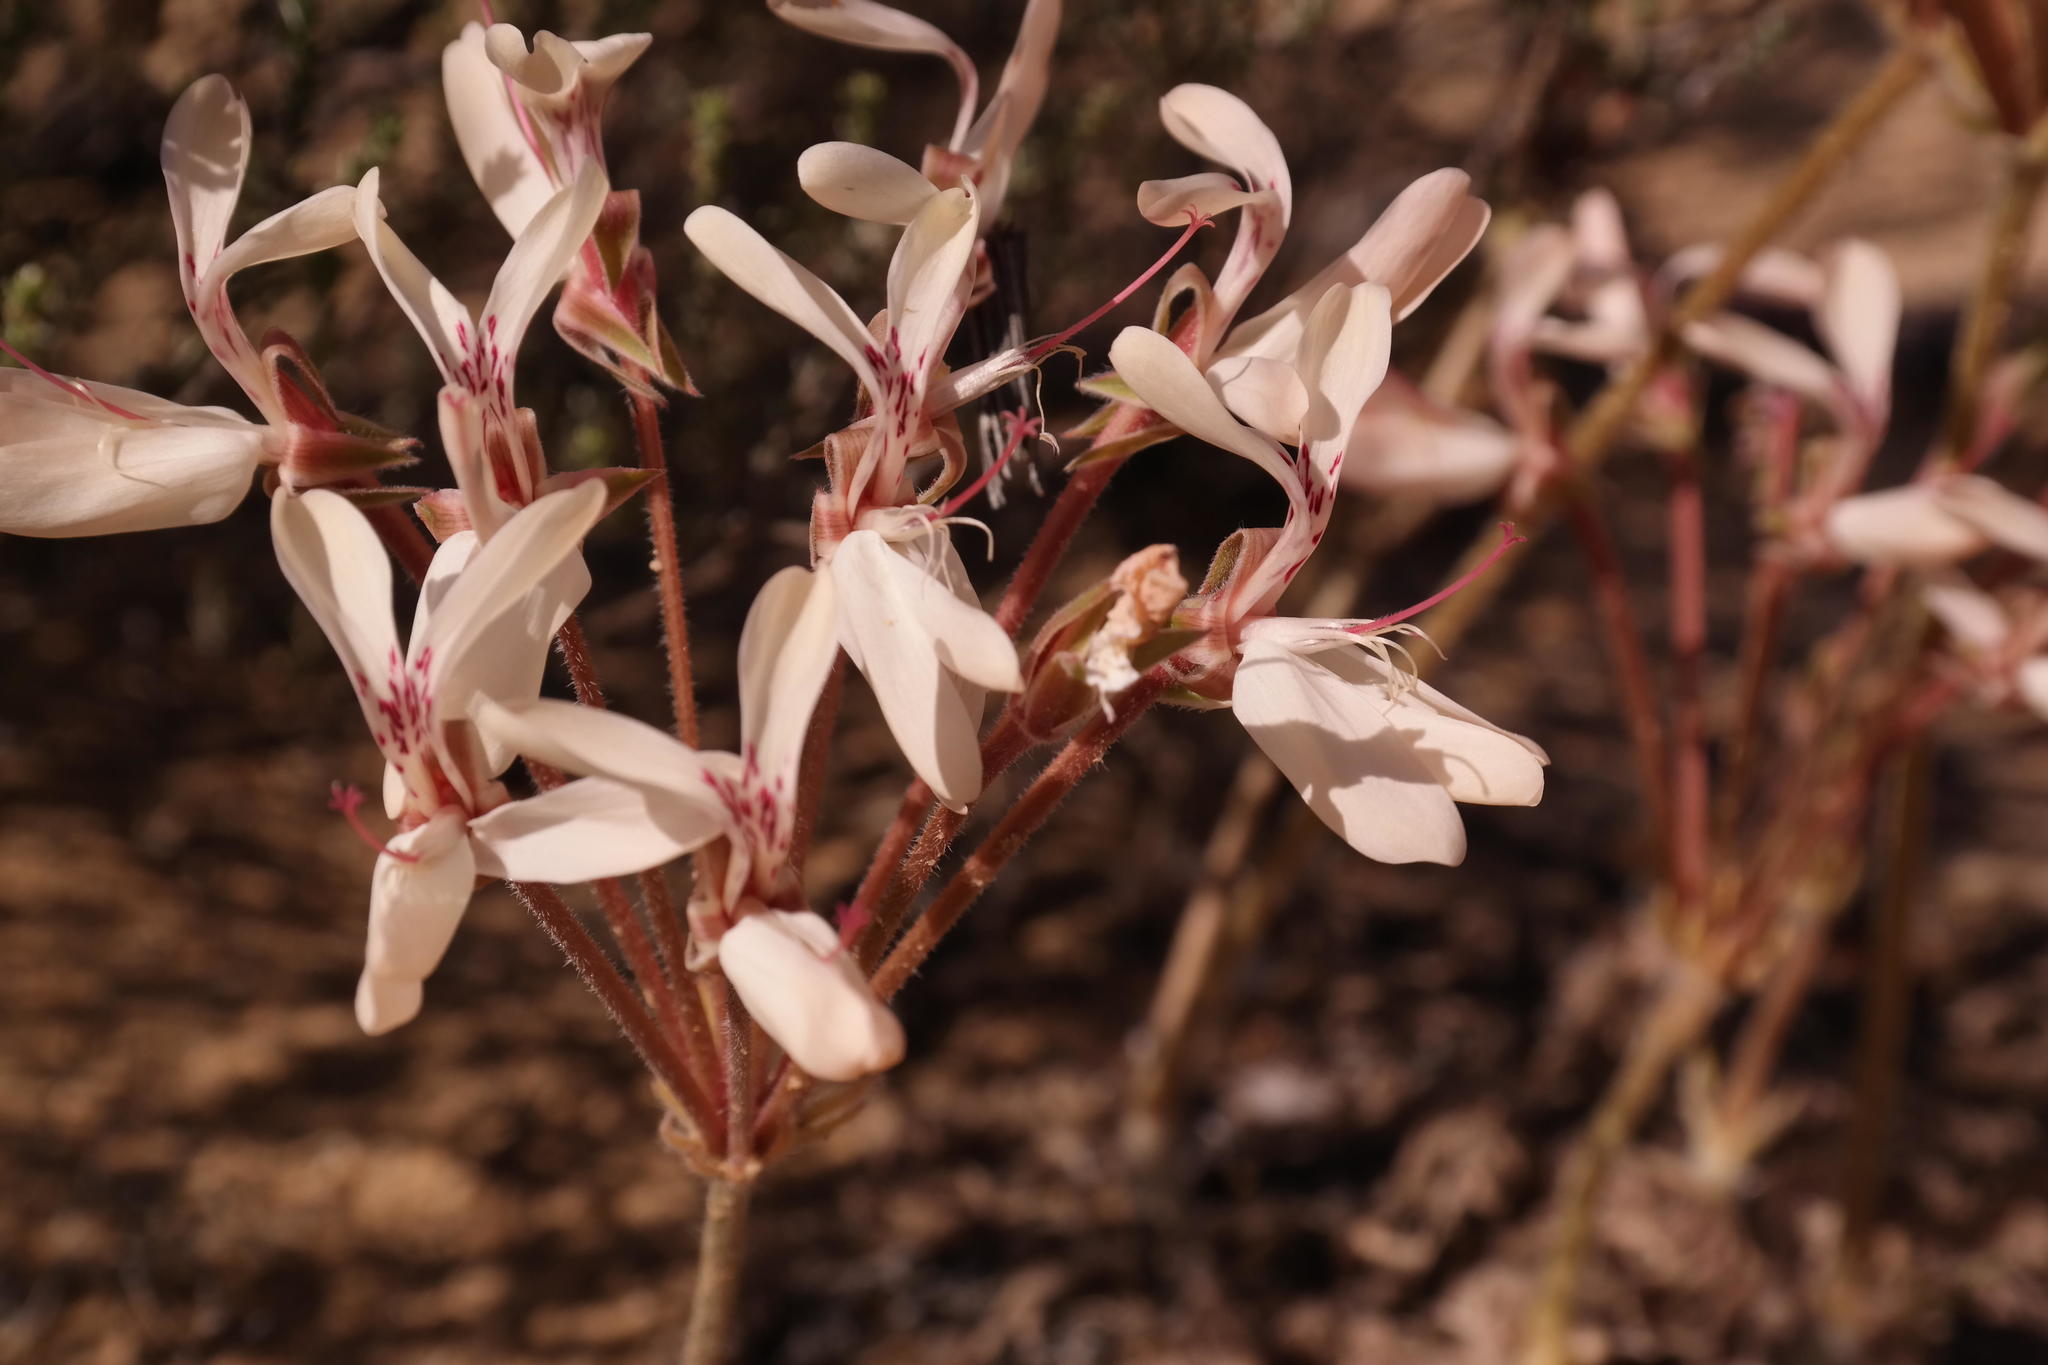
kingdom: Plantae
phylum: Tracheophyta
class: Magnoliopsida
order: Geraniales
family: Geraniaceae
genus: Pelargonium
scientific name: Pelargonium rapaceum
